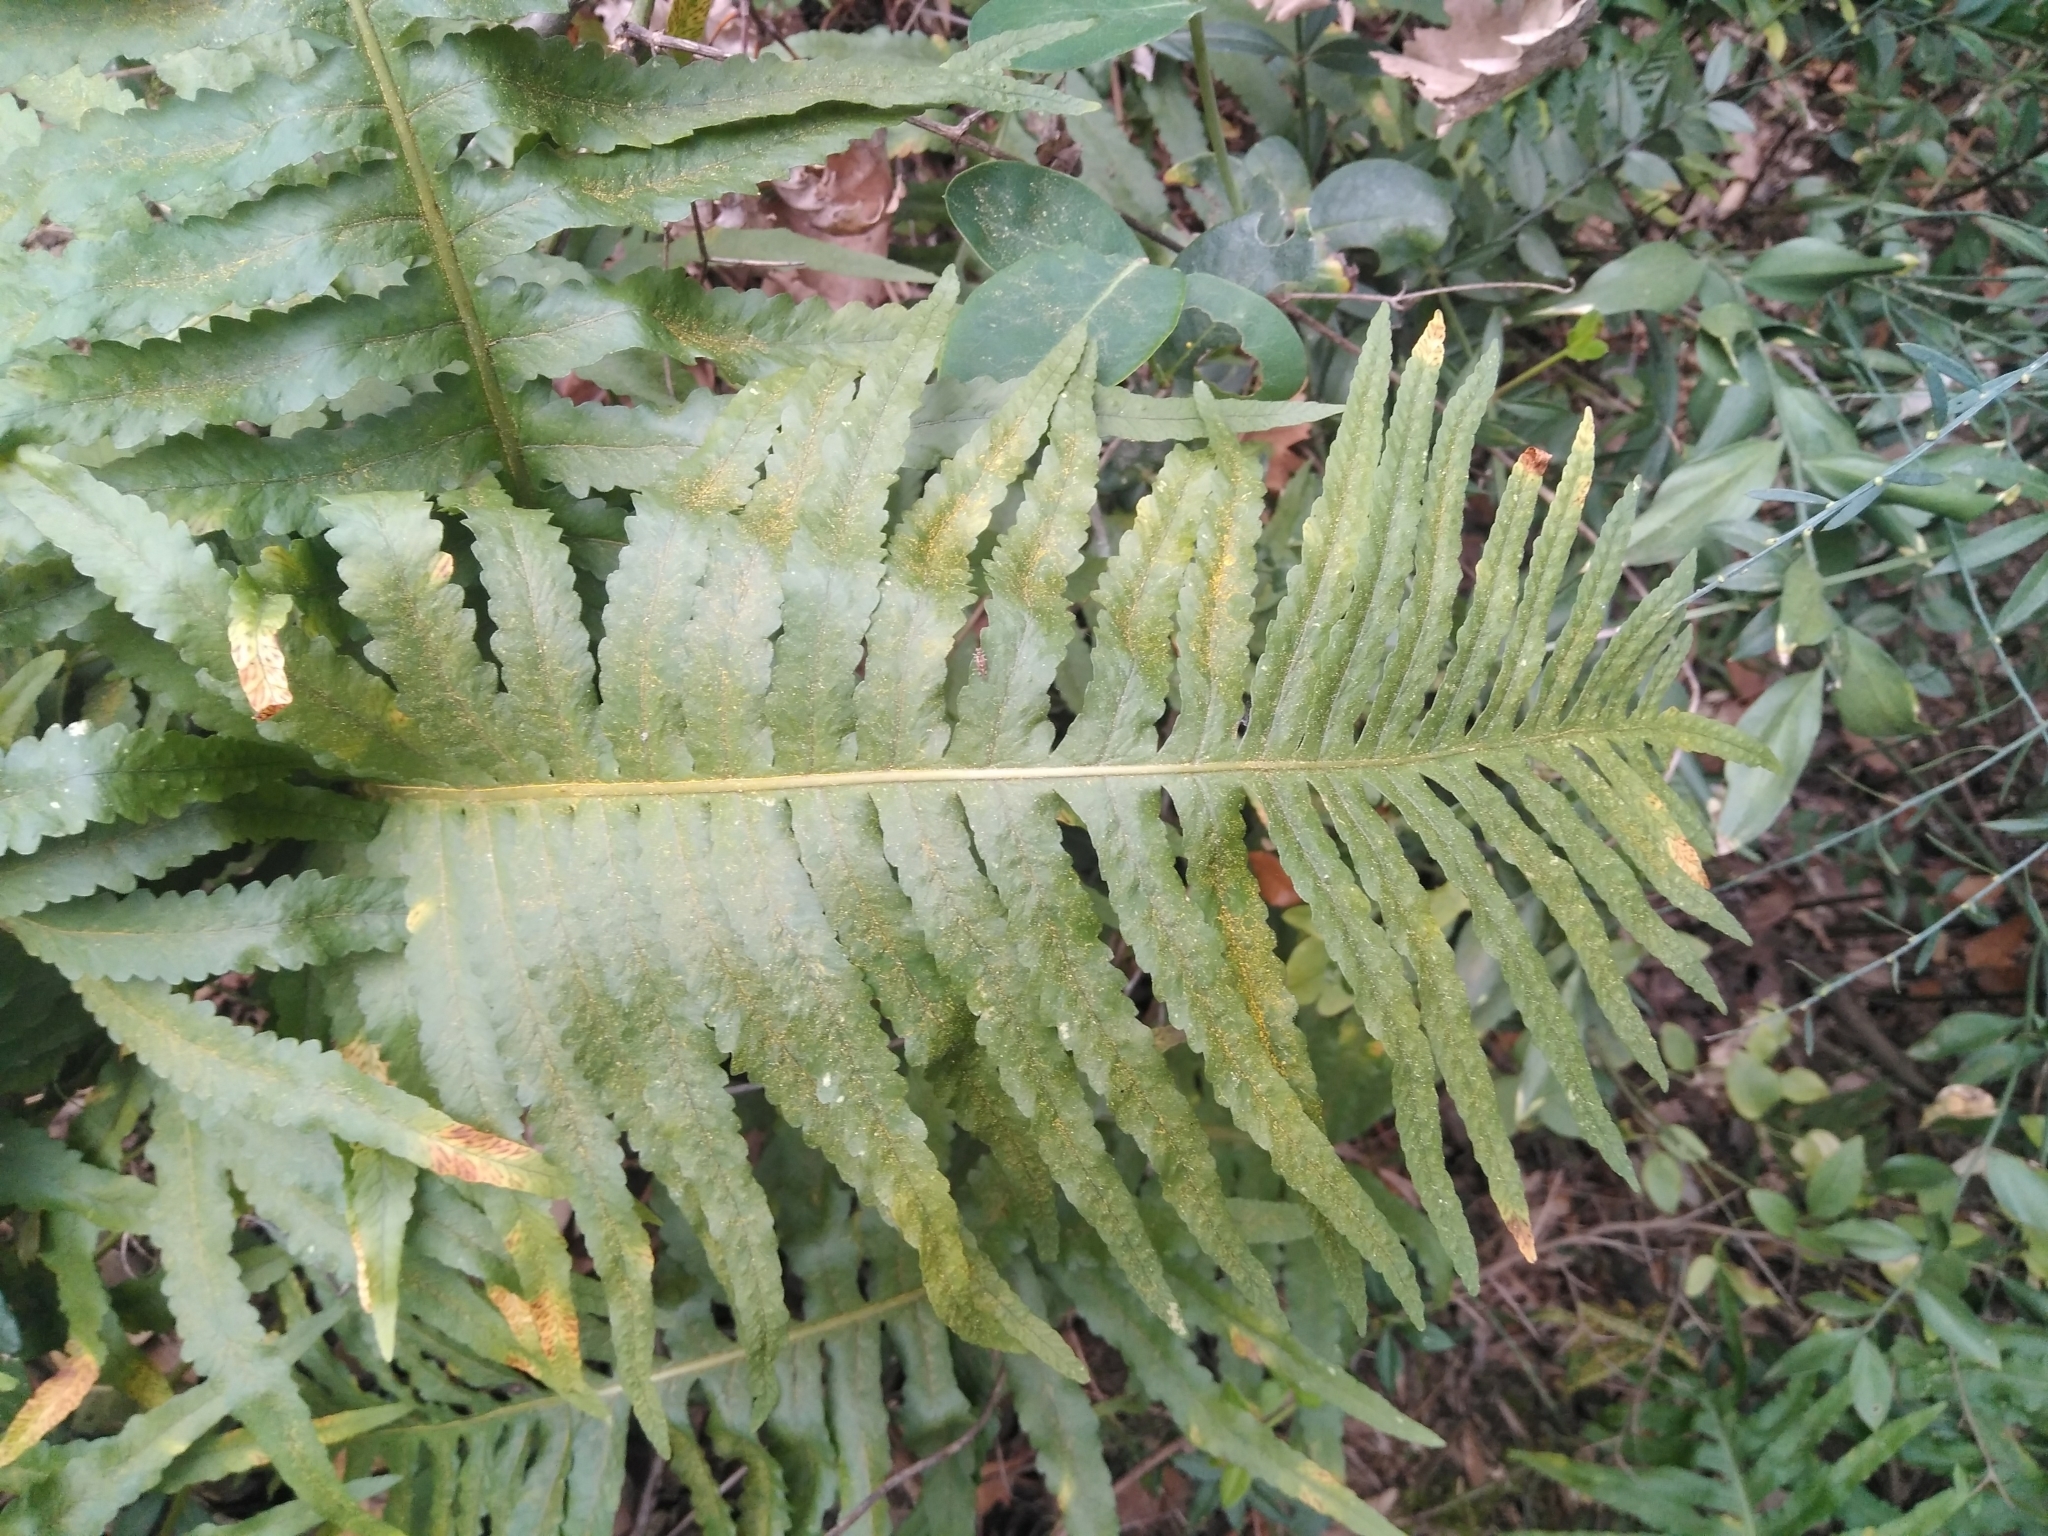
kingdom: Plantae
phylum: Tracheophyta
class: Polypodiopsida
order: Polypodiales
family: Polypodiaceae
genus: Polypodium
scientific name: Polypodium cambricum
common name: Southern polypody
